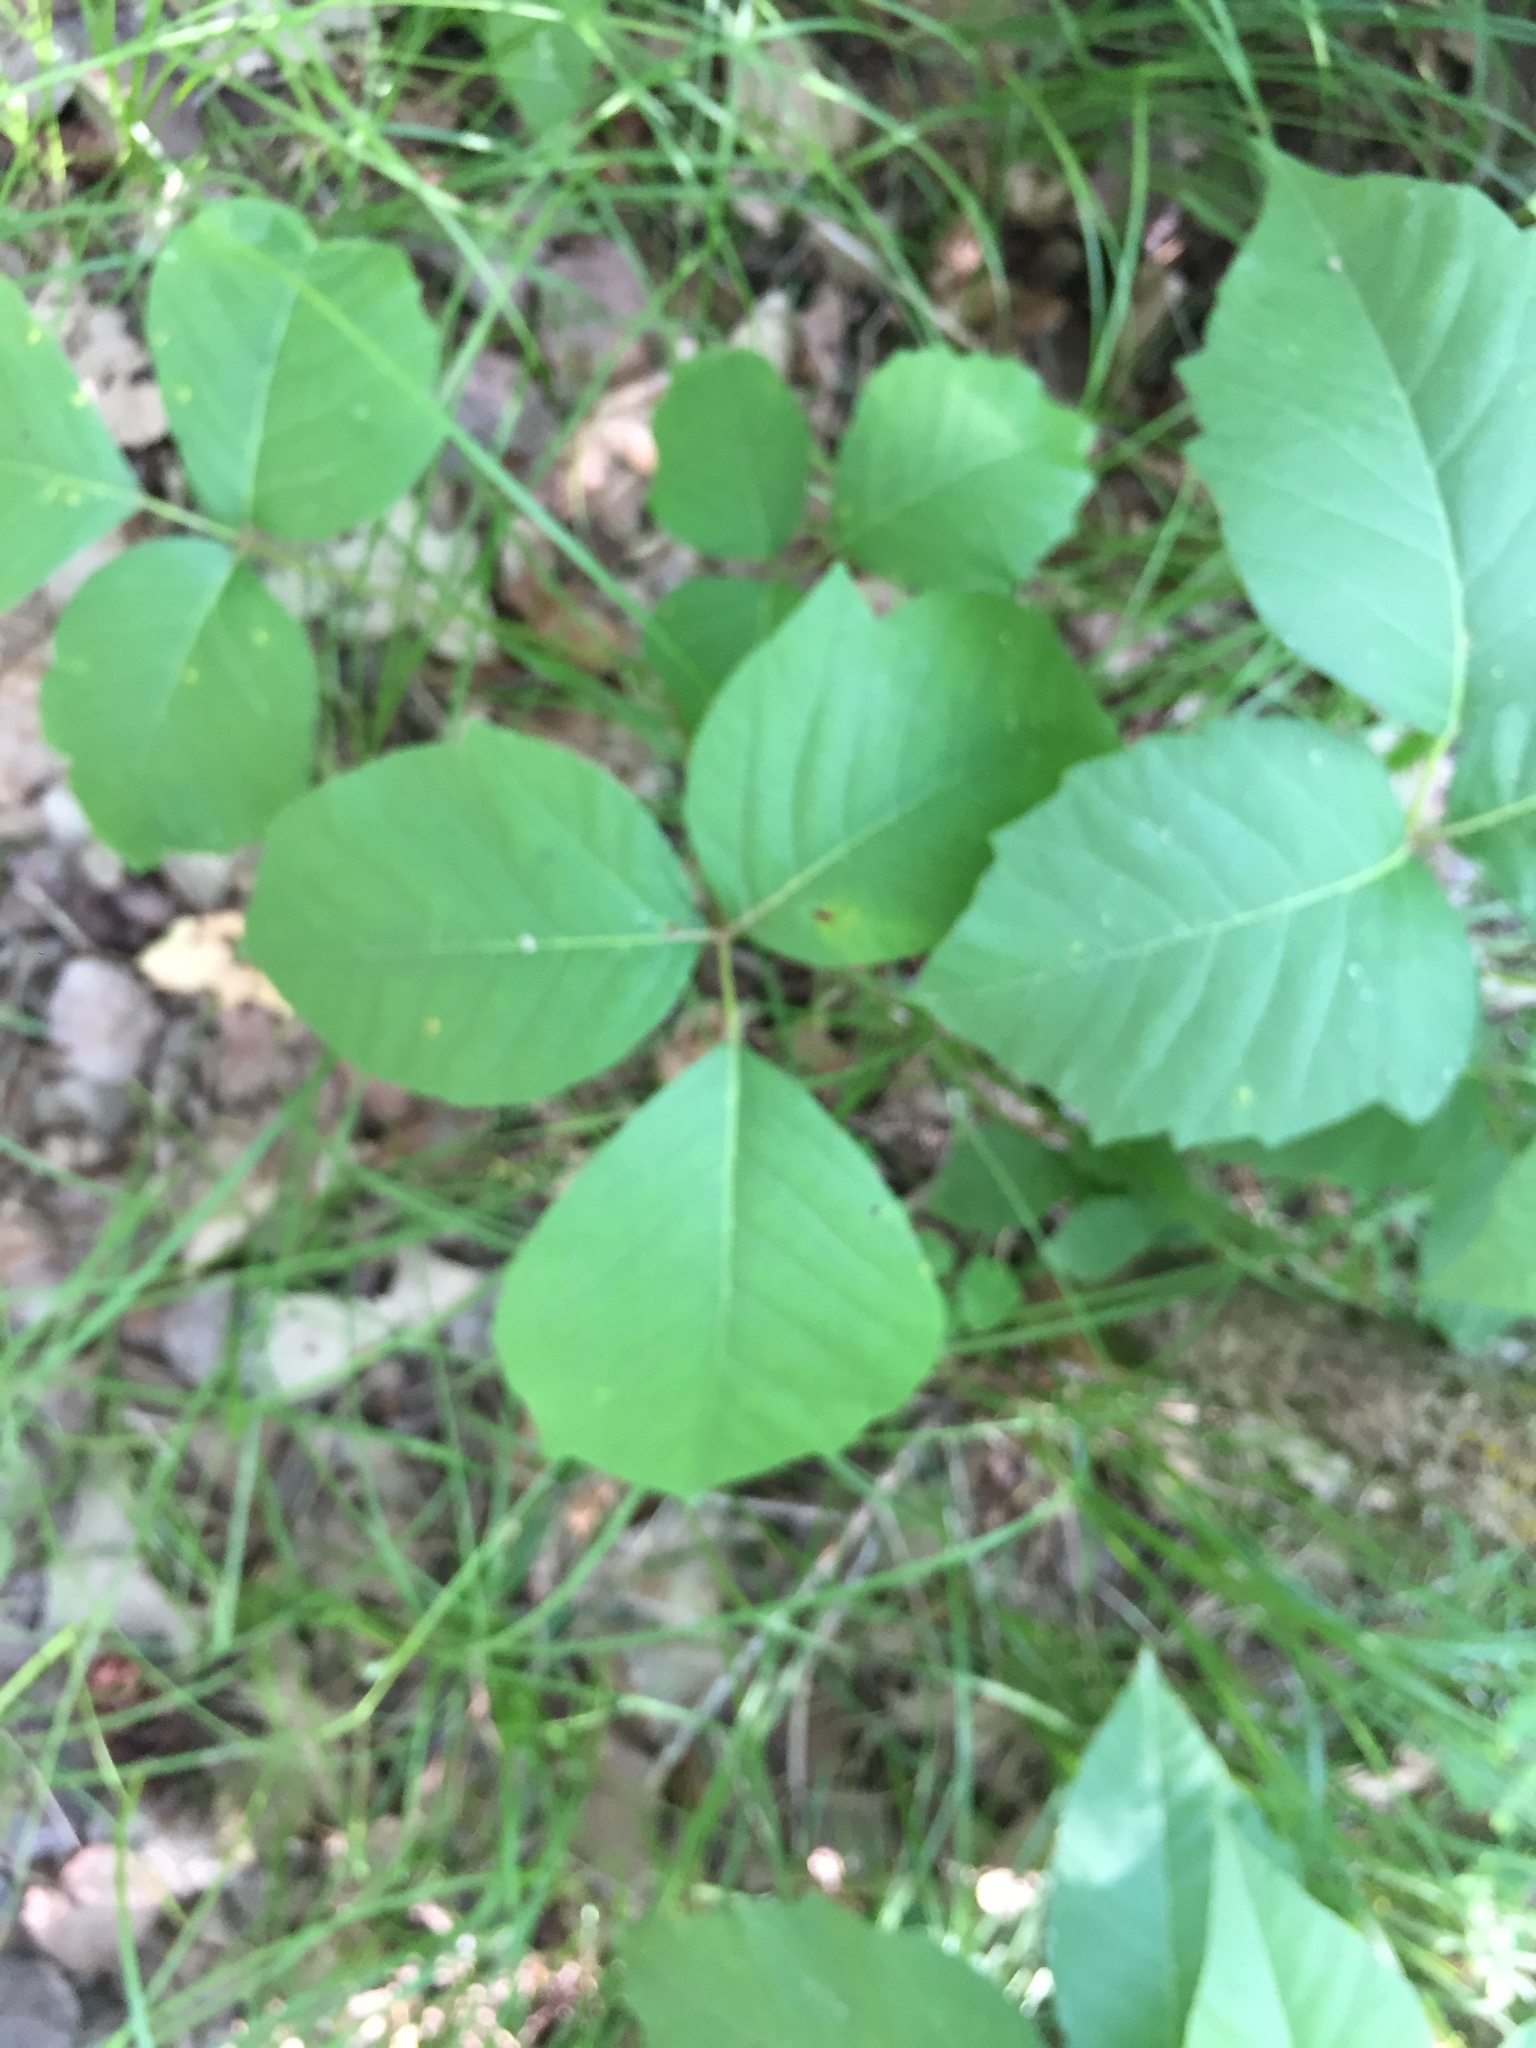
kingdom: Plantae
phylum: Tracheophyta
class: Magnoliopsida
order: Sapindales
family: Anacardiaceae
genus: Toxicodendron
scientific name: Toxicodendron rydbergii
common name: Rydberg's poison-ivy
